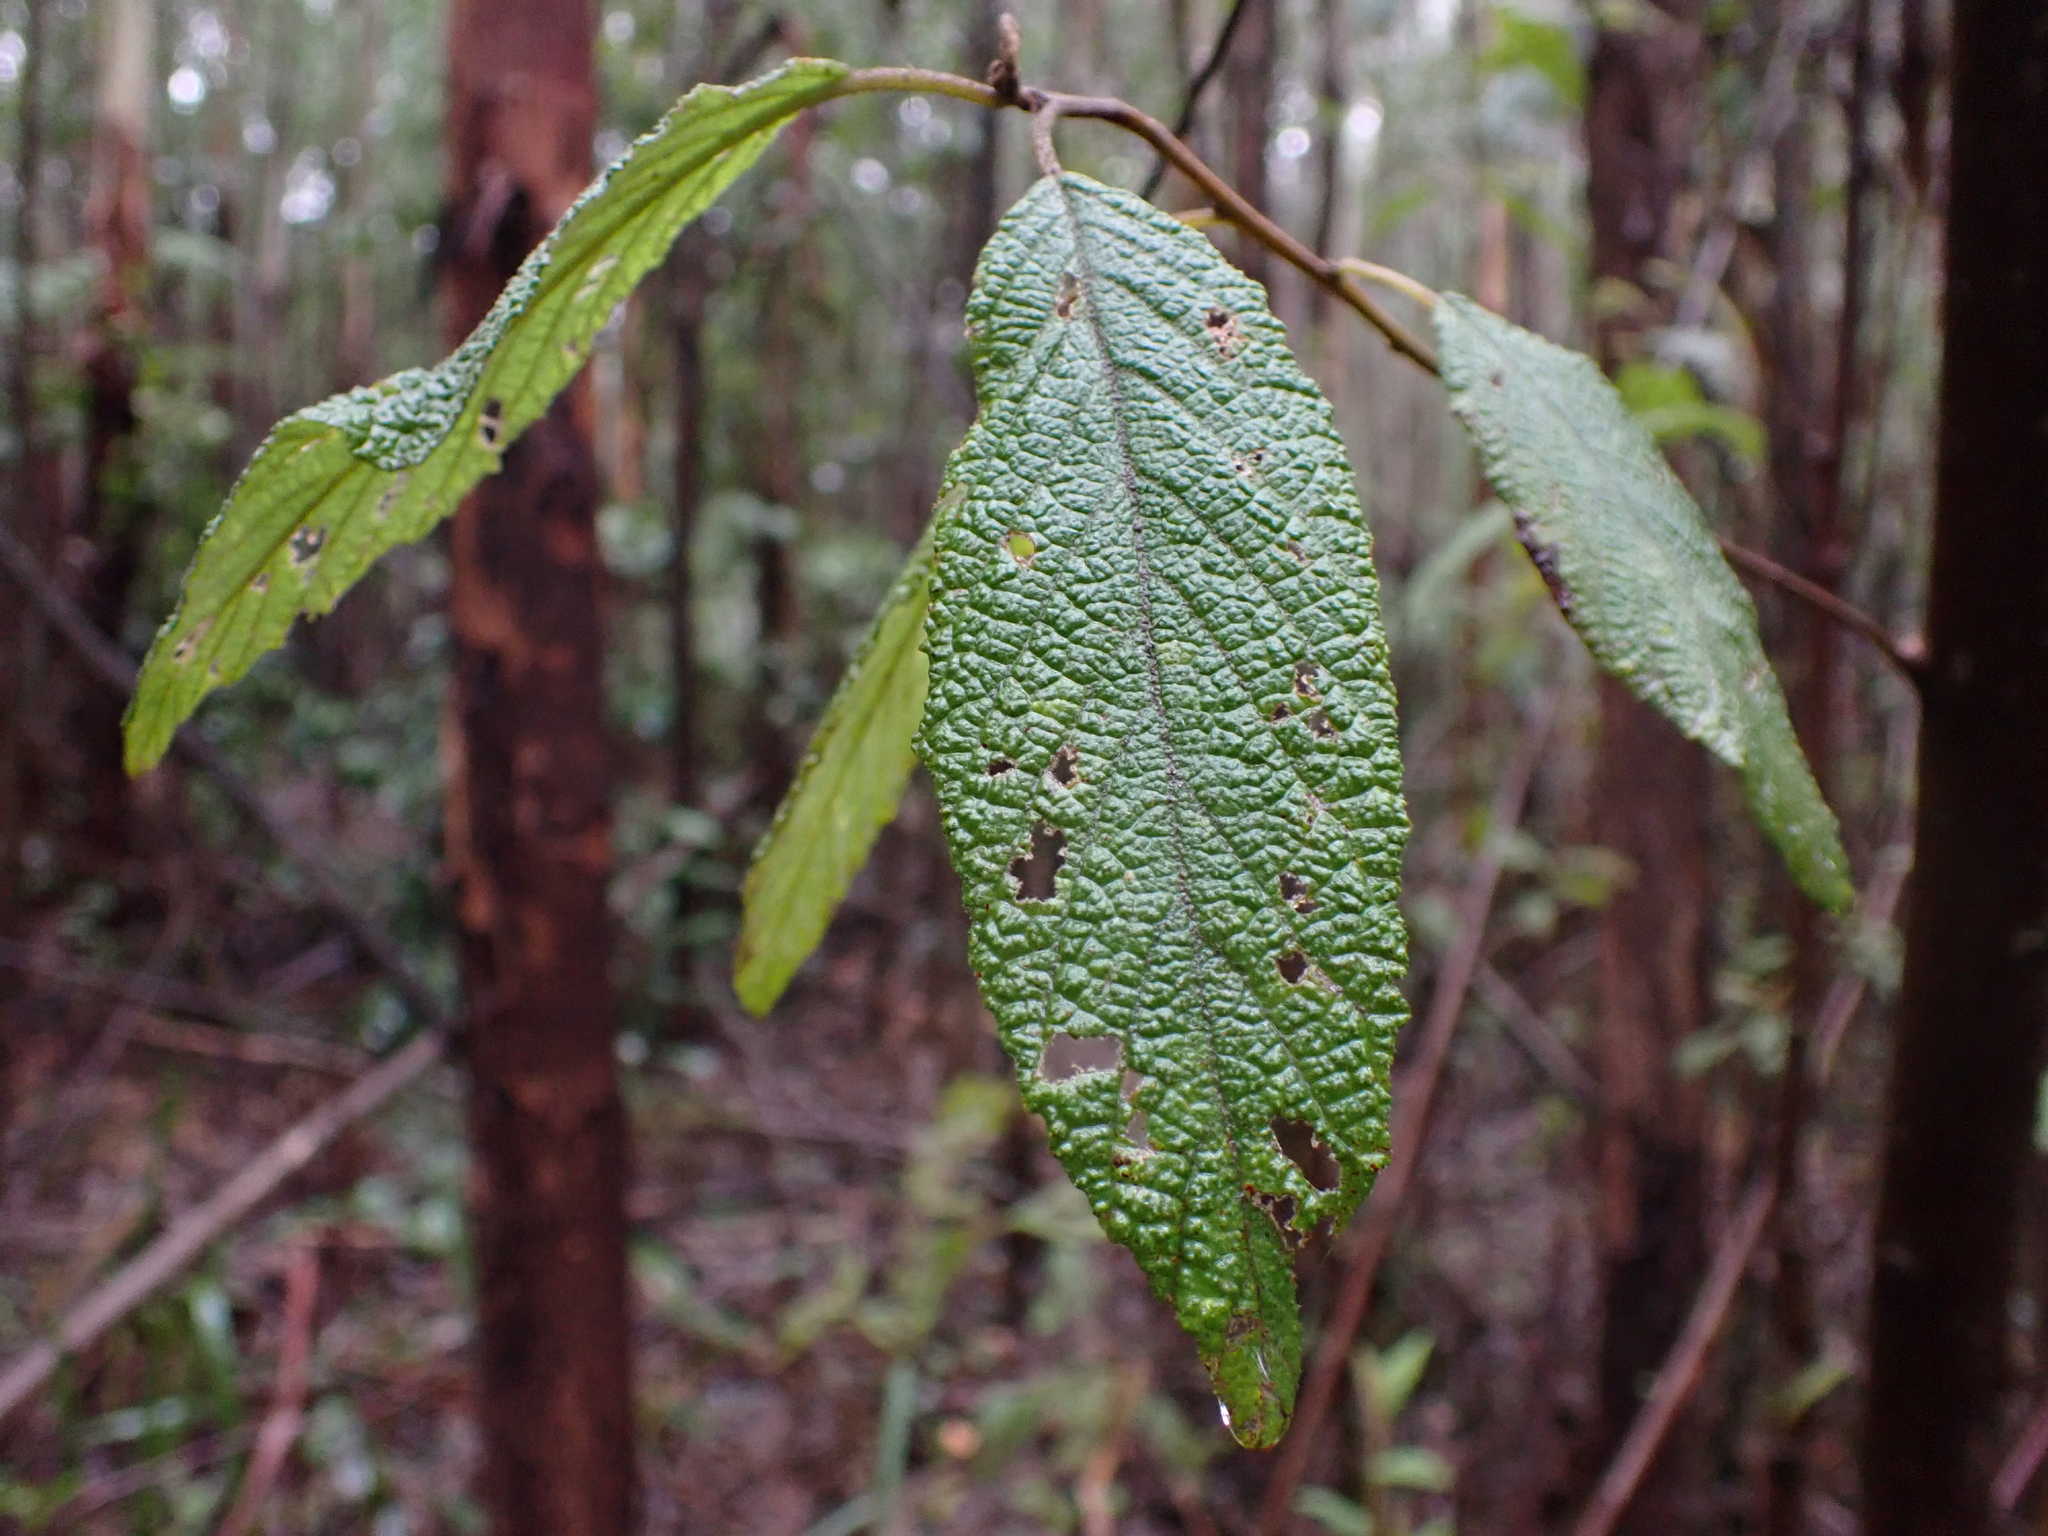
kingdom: Plantae
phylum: Tracheophyta
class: Magnoliopsida
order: Rosales
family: Rhamnaceae
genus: Pomaderris
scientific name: Pomaderris aspera
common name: Hazel pomaderris
